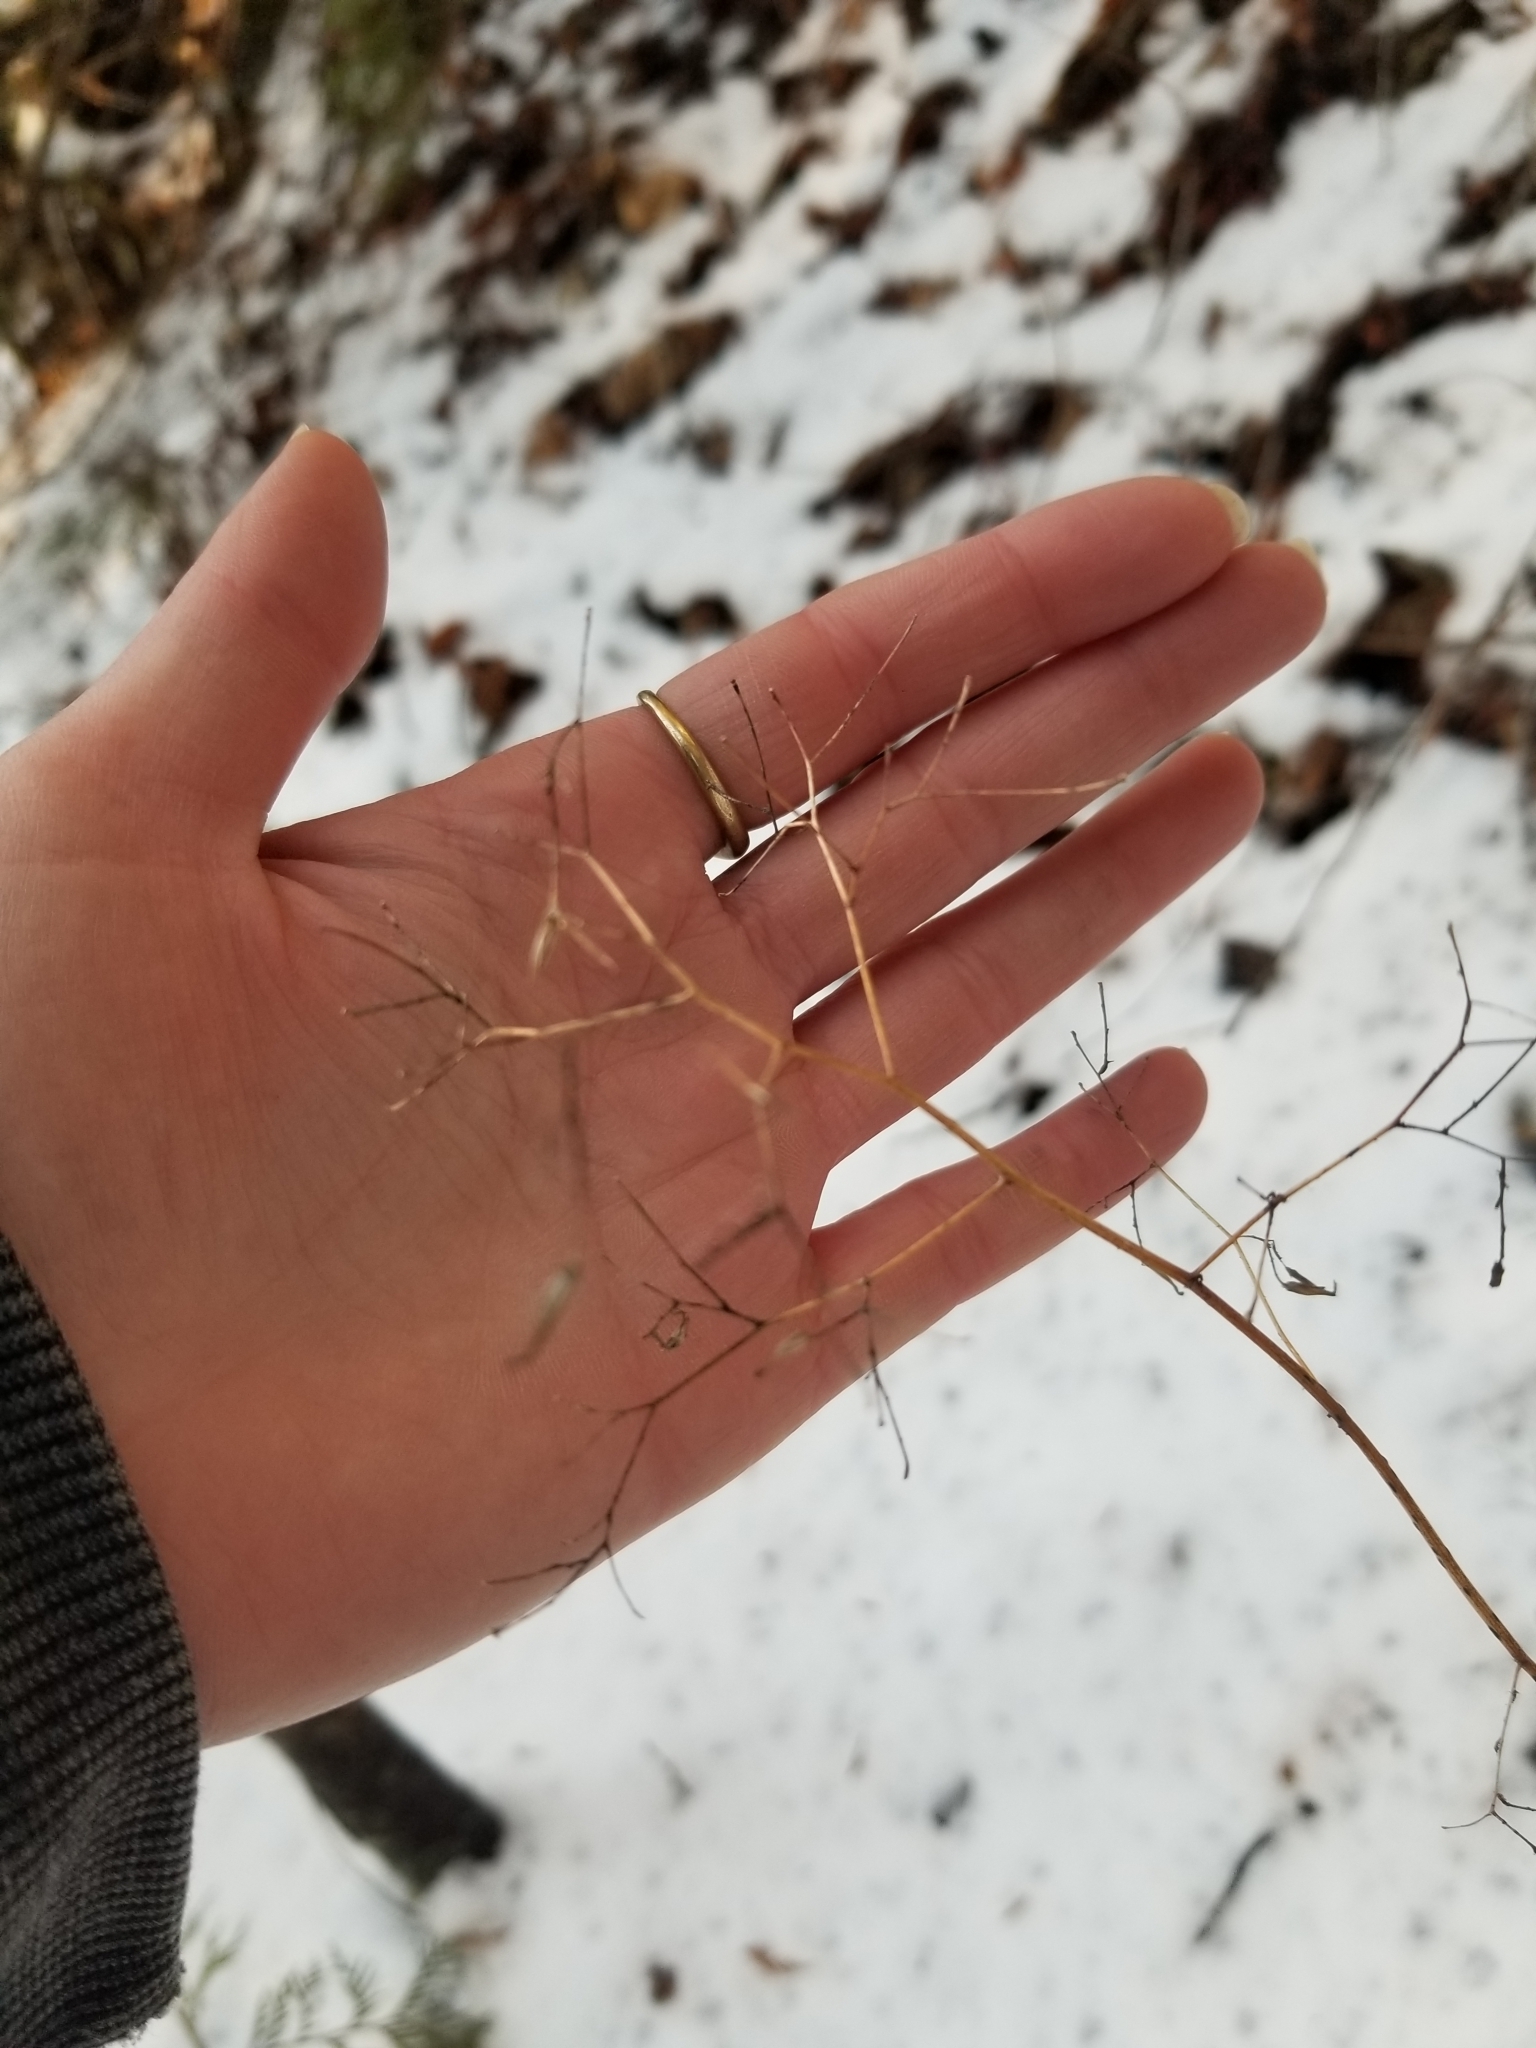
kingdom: Plantae
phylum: Tracheophyta
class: Magnoliopsida
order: Asterales
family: Asteraceae
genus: Mycelis
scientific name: Mycelis muralis
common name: Wall lettuce
